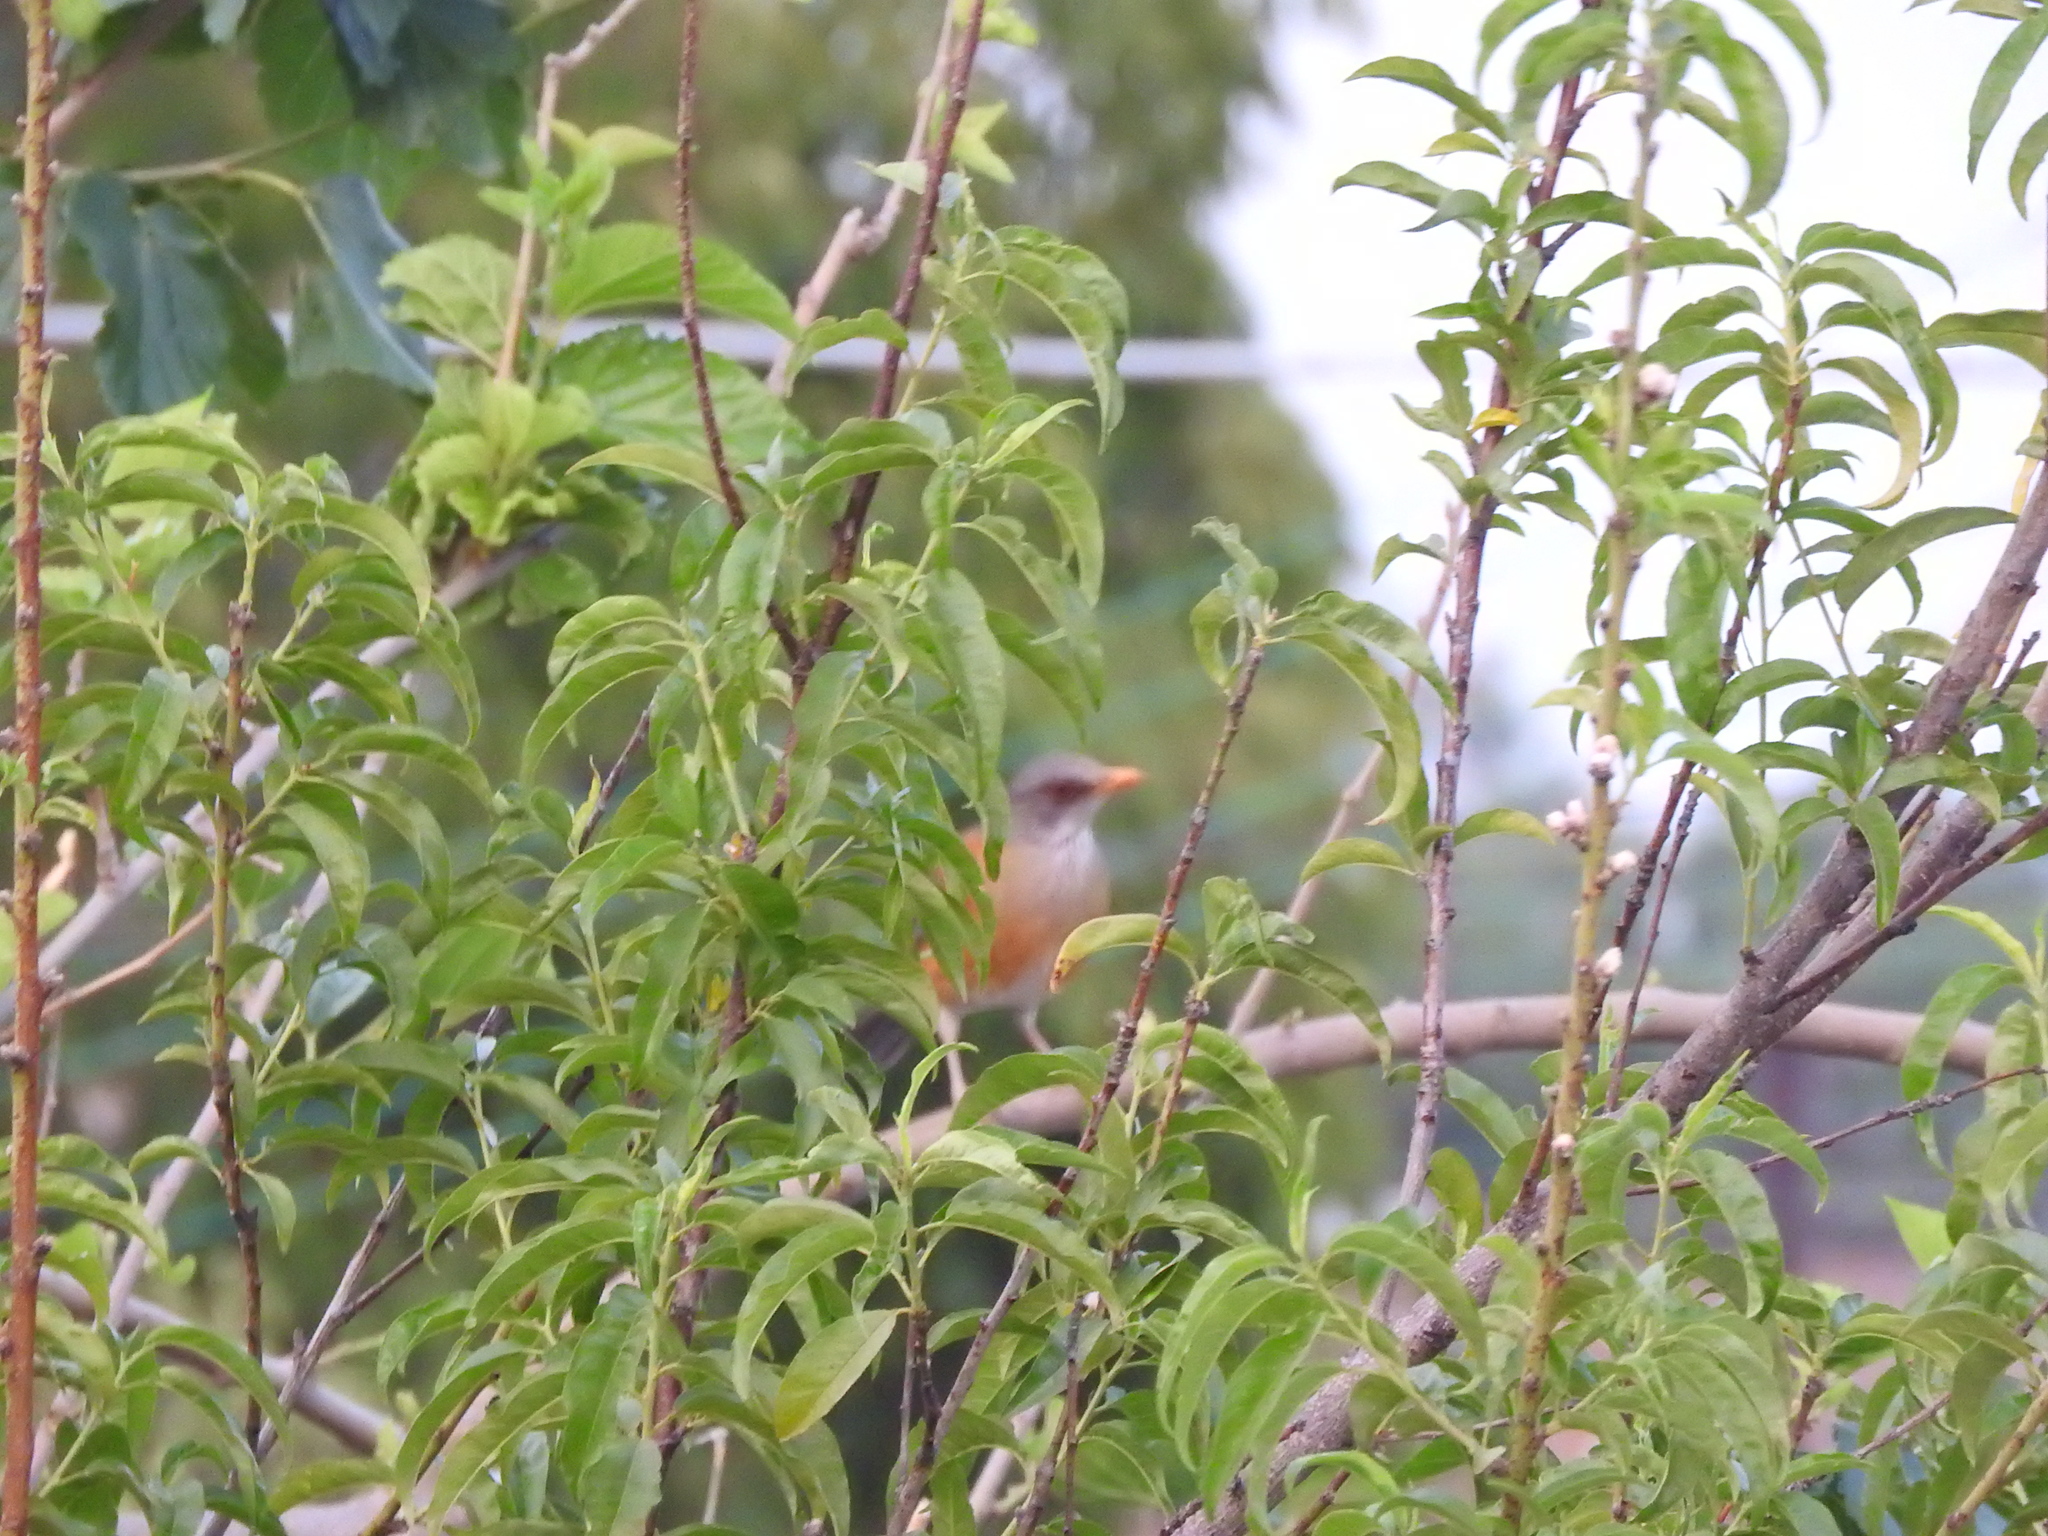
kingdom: Animalia
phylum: Chordata
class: Aves
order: Passeriformes
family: Turdidae
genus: Turdus
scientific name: Turdus rufopalliatus
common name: Rufous-backed robin
